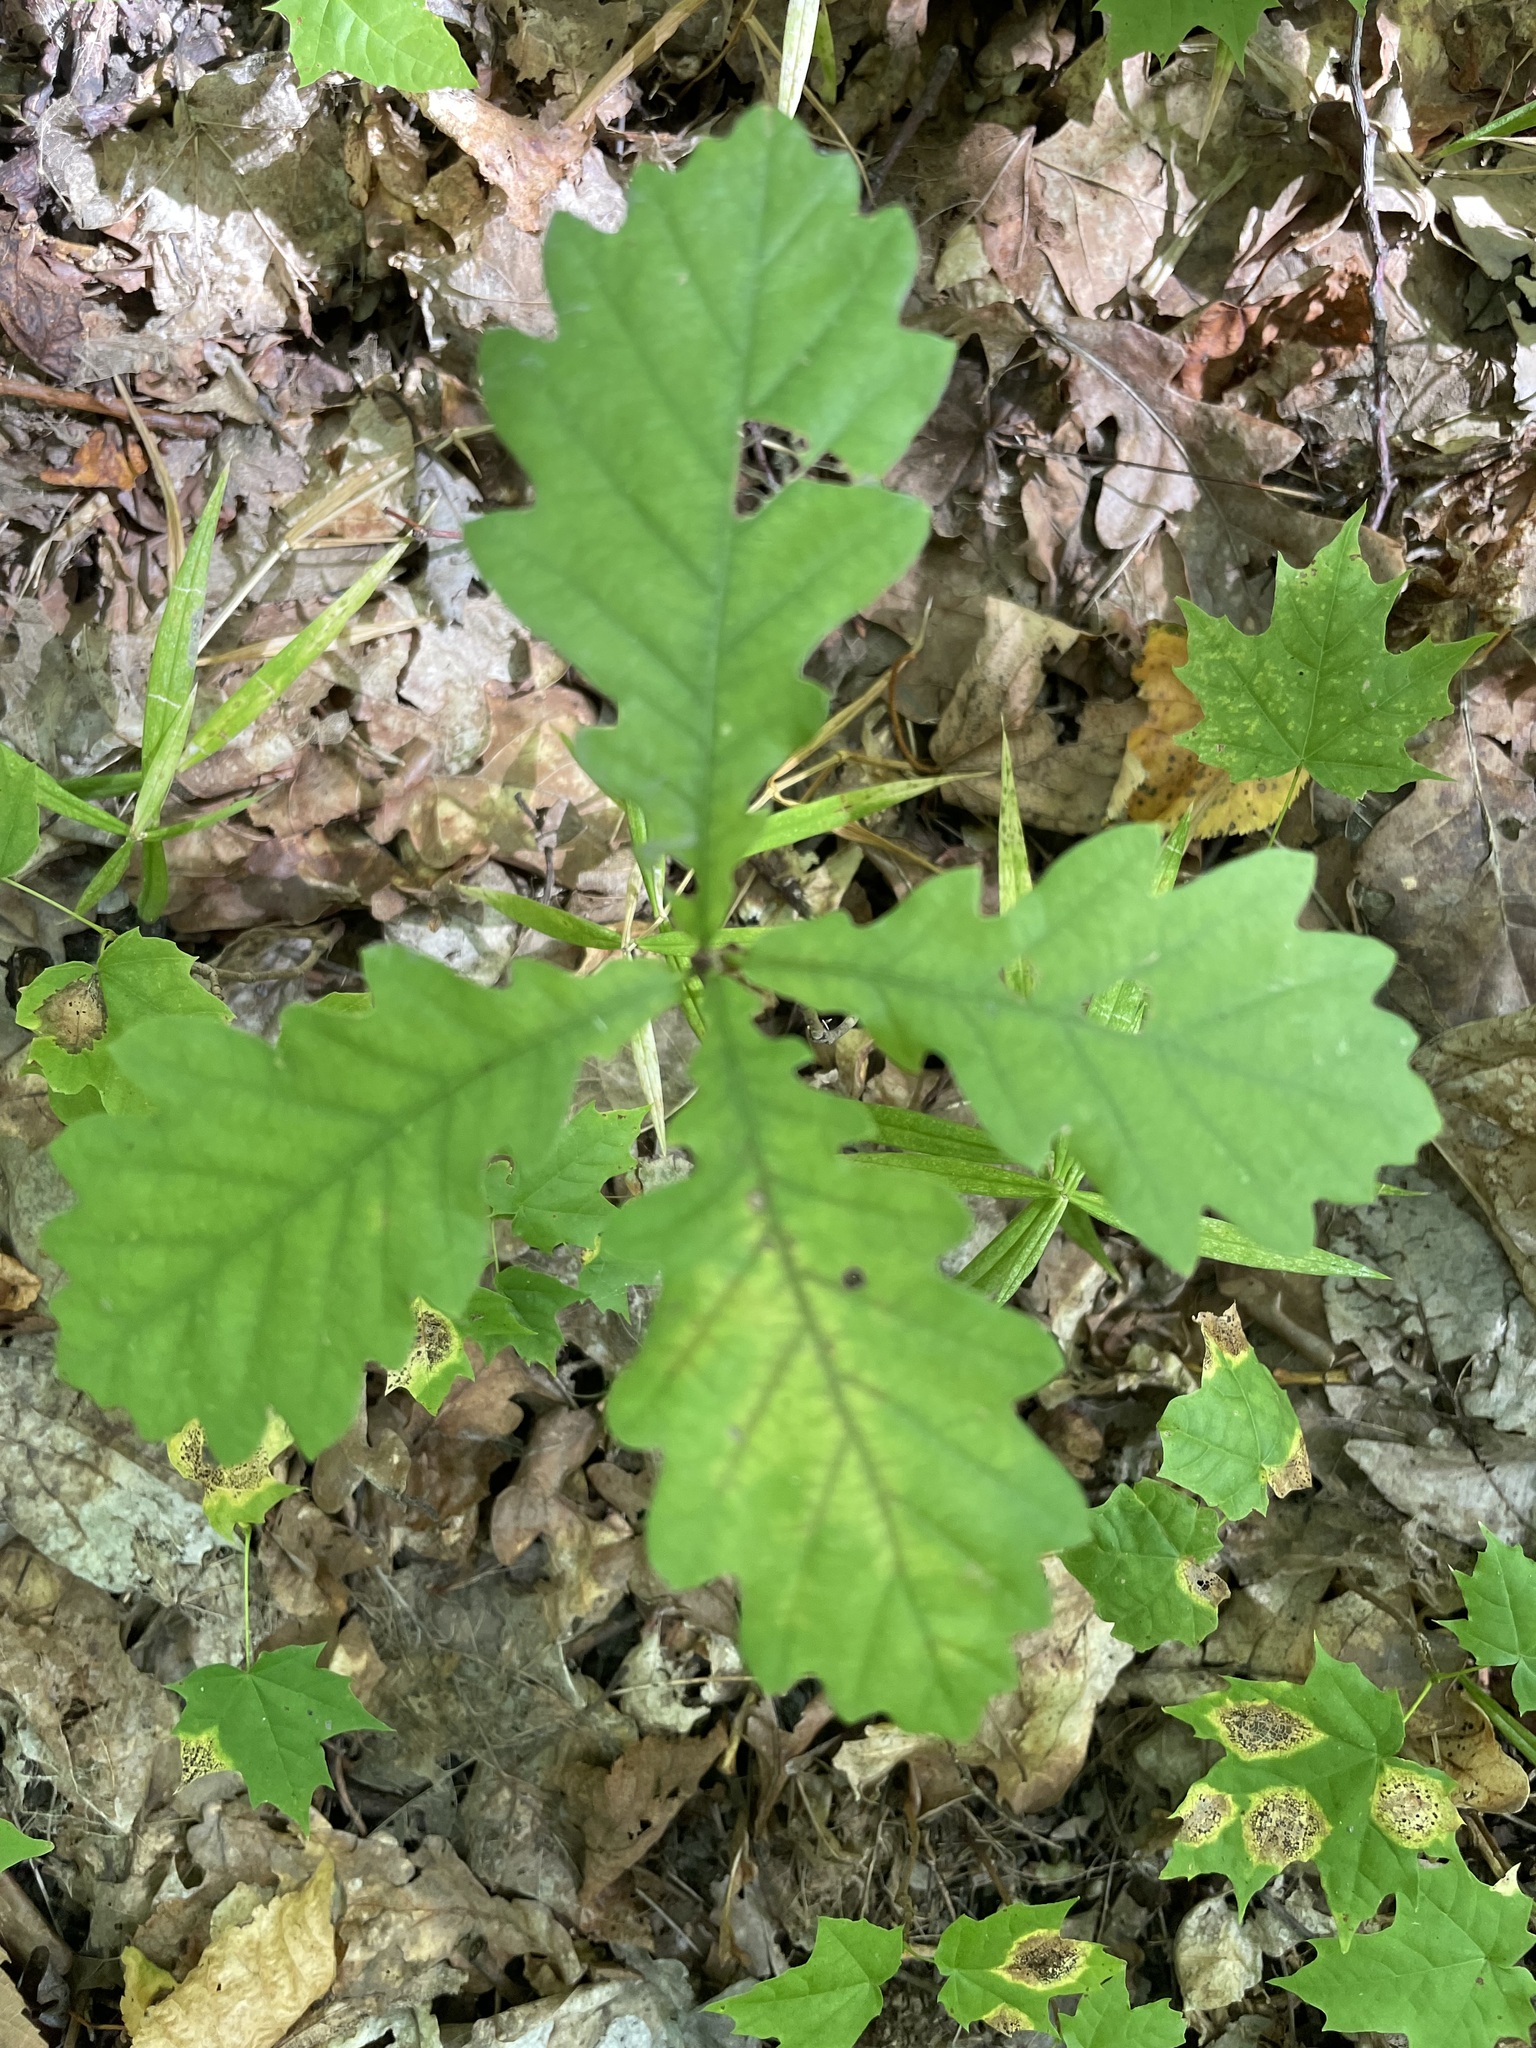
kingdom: Plantae
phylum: Tracheophyta
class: Magnoliopsida
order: Fagales
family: Fagaceae
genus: Quercus
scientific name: Quercus robur
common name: Pedunculate oak
